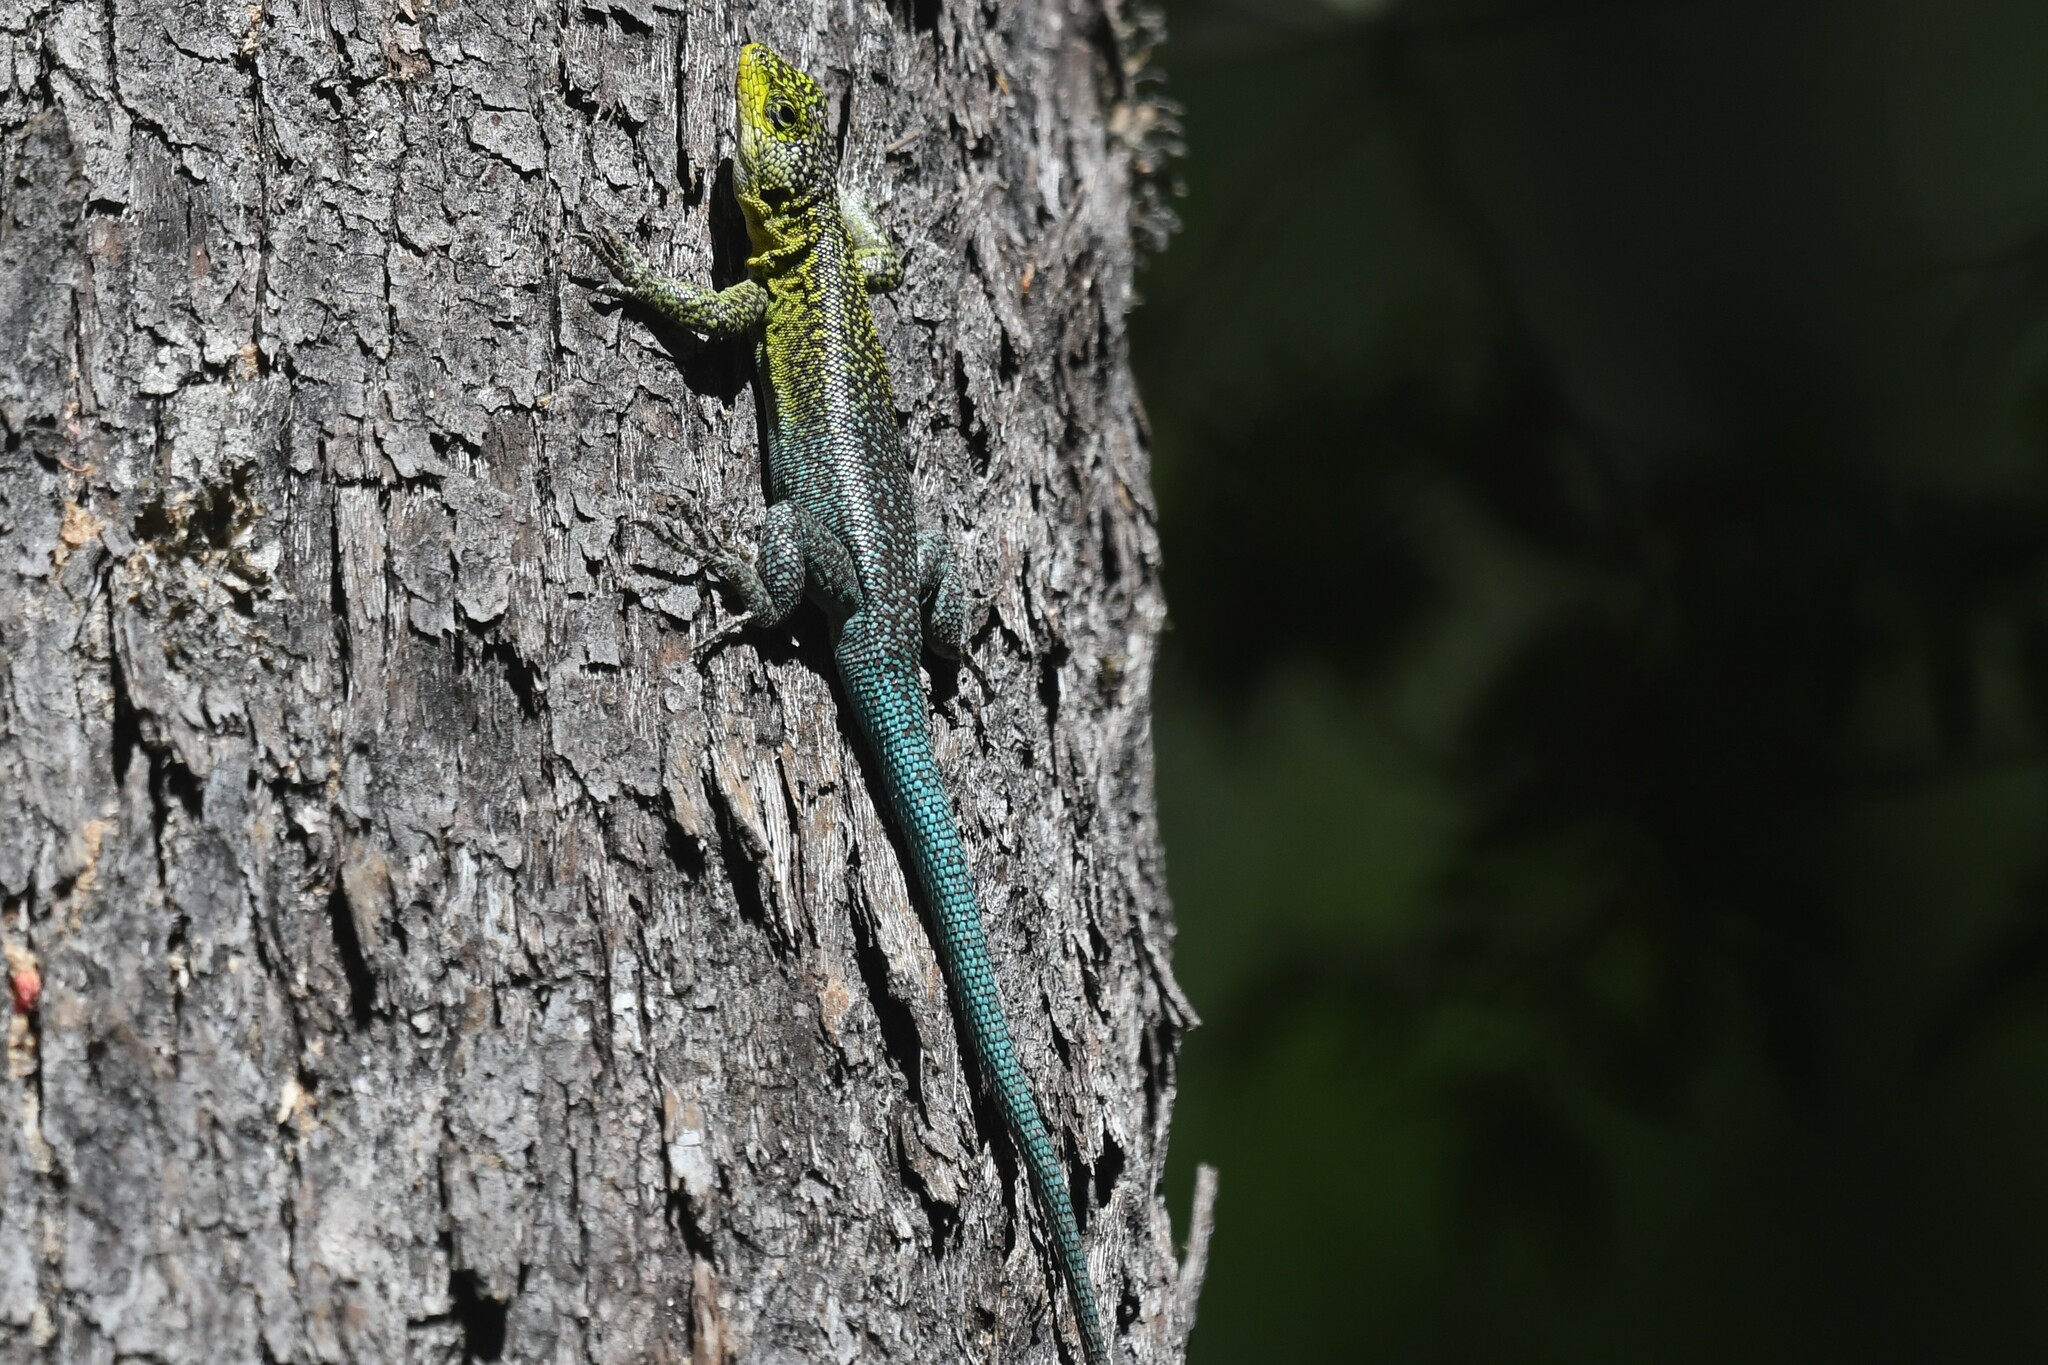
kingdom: Animalia
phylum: Chordata
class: Squamata
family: Liolaemidae
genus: Liolaemus
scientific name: Liolaemus tenuis
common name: Thin tree iguana
